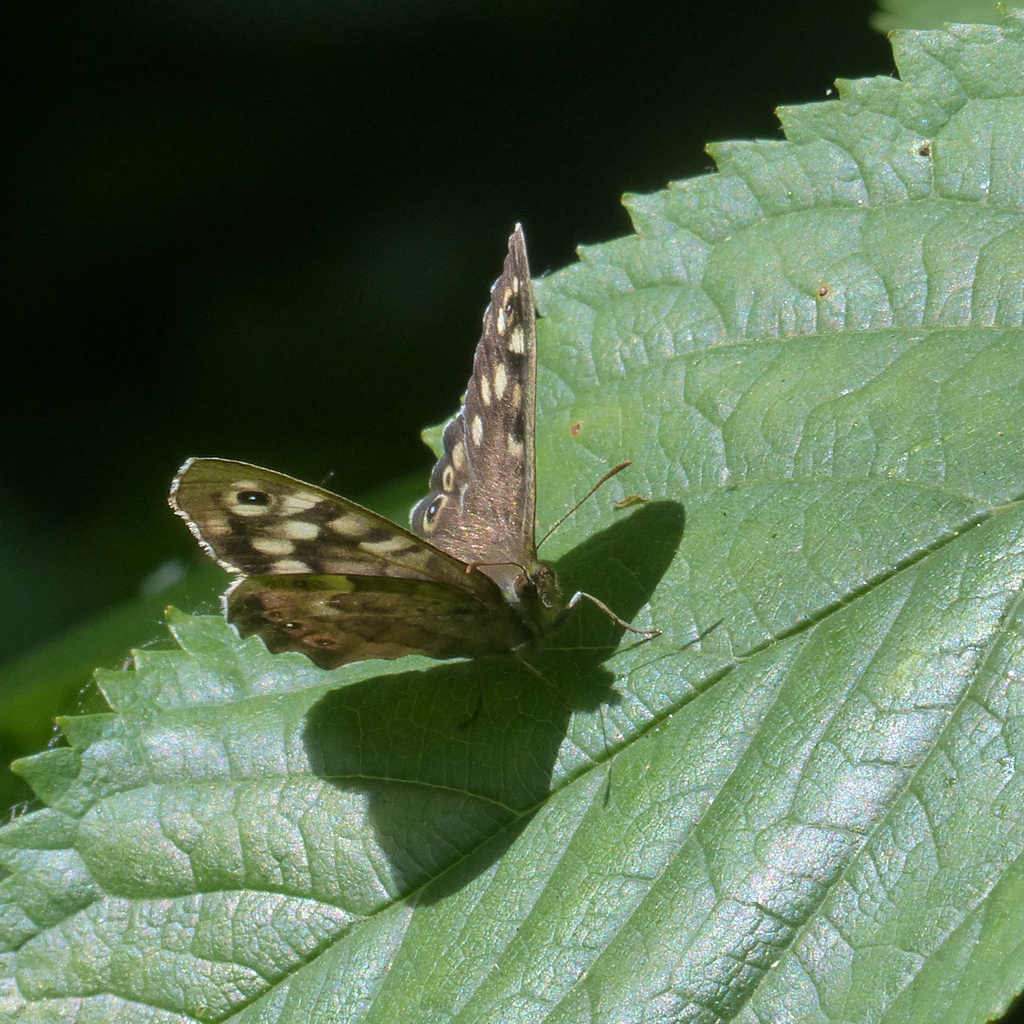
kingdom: Animalia
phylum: Arthropoda
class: Insecta
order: Lepidoptera
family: Nymphalidae
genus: Pararge
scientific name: Pararge aegeria
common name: Speckled wood
